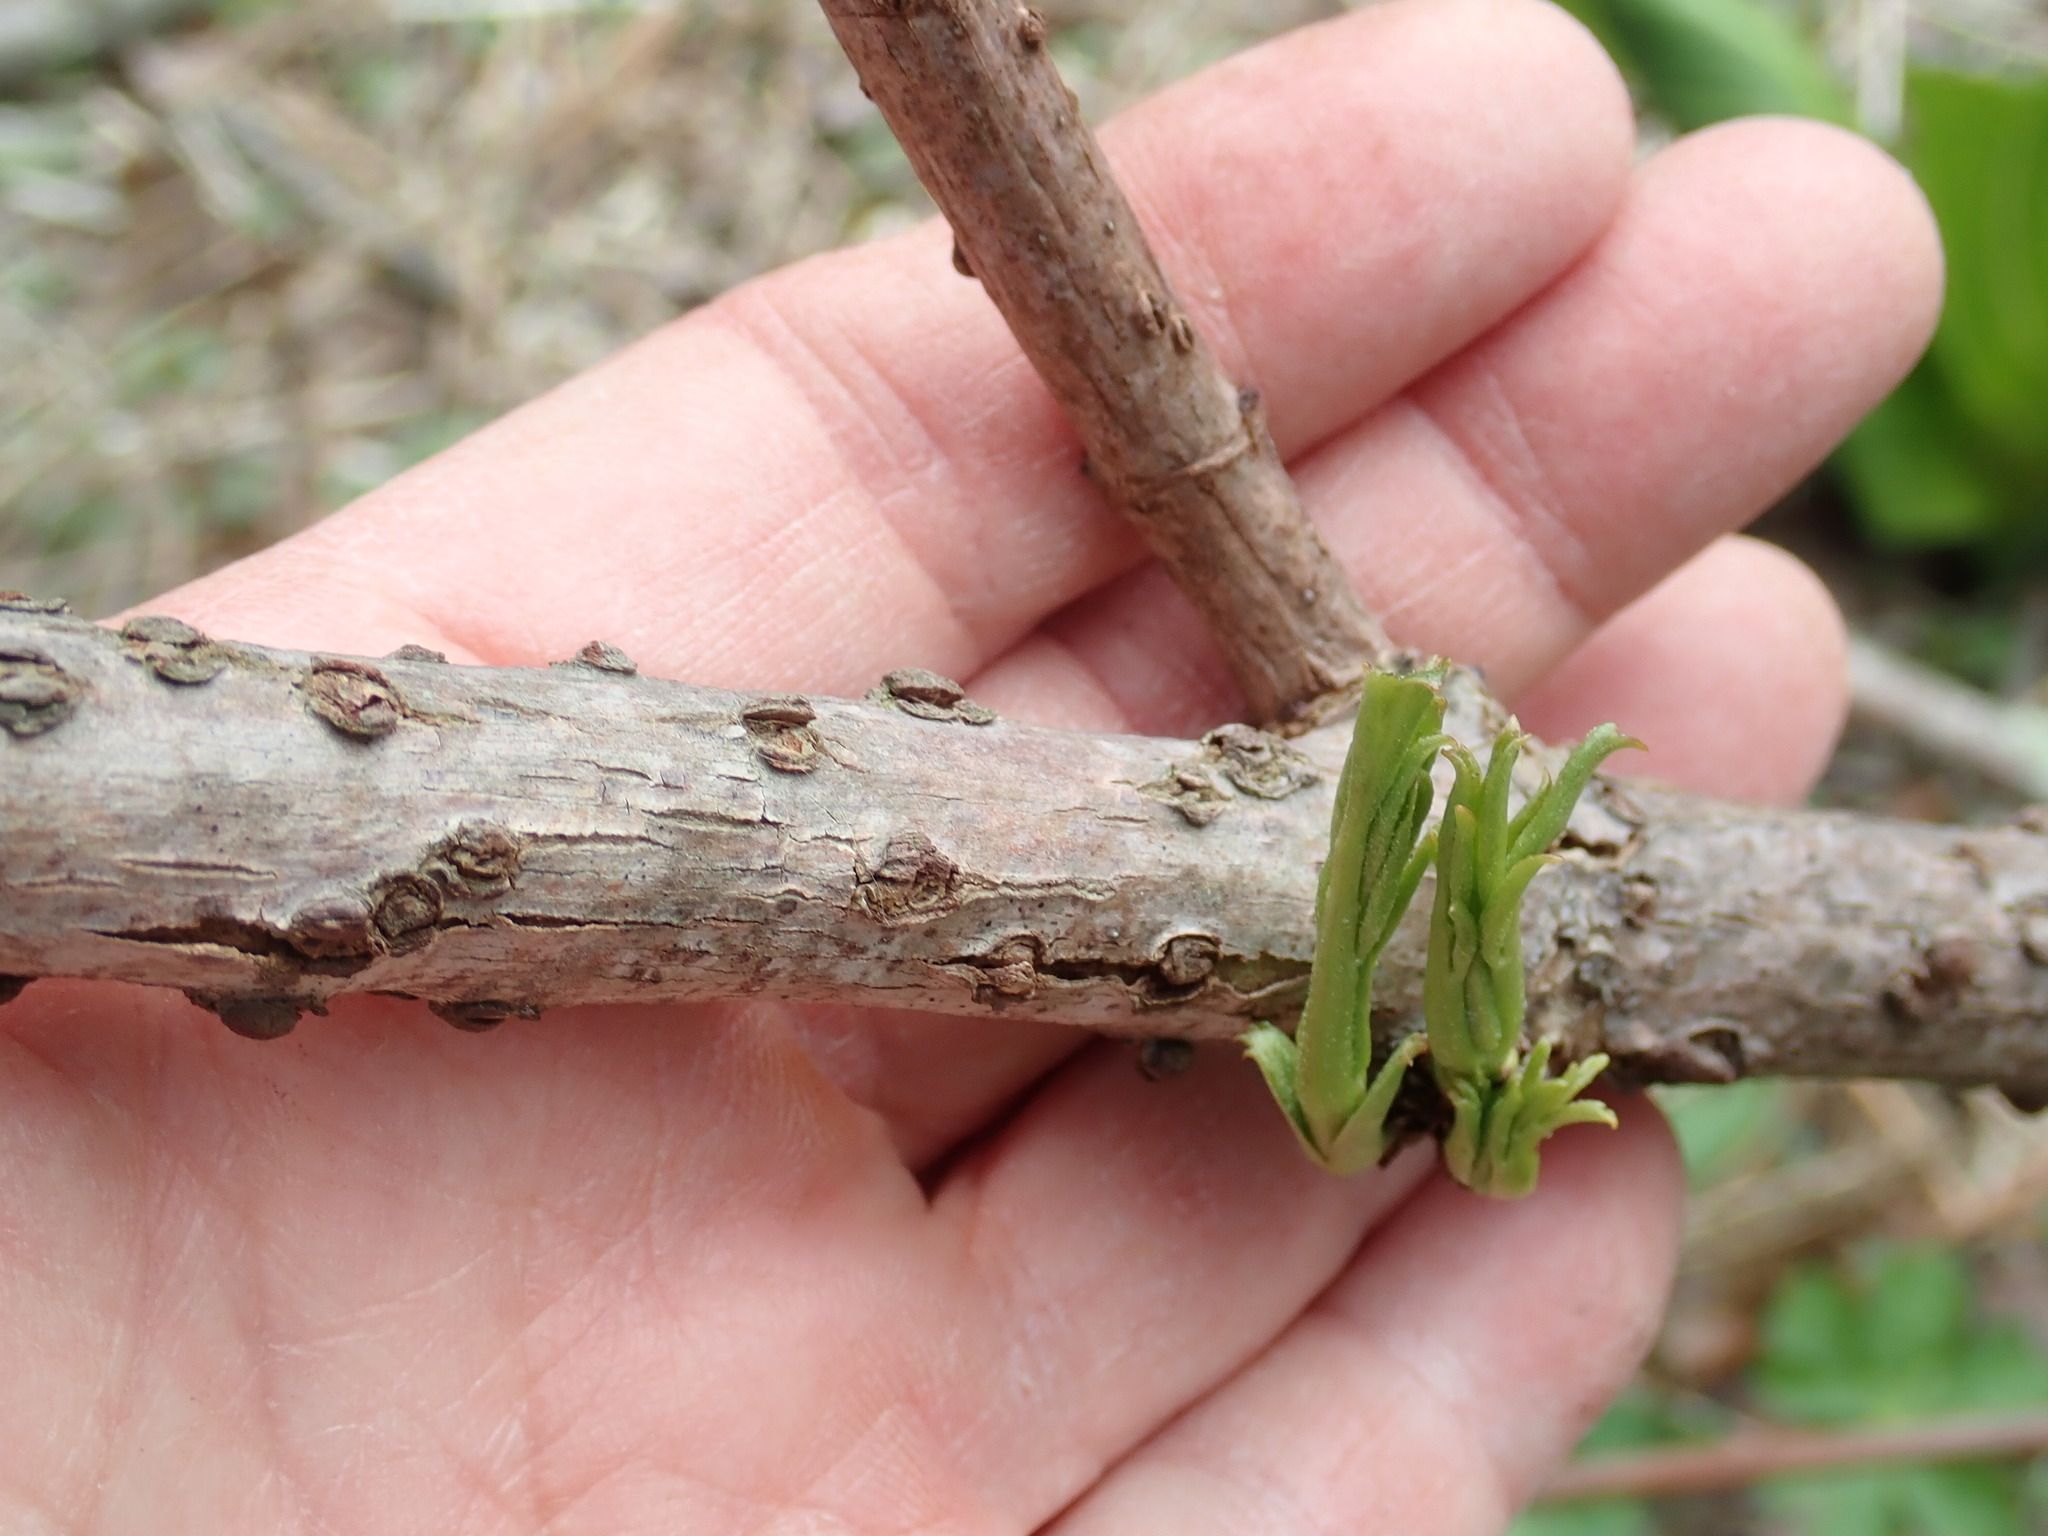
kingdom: Plantae
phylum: Tracheophyta
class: Magnoliopsida
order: Dipsacales
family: Viburnaceae
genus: Sambucus
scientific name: Sambucus
